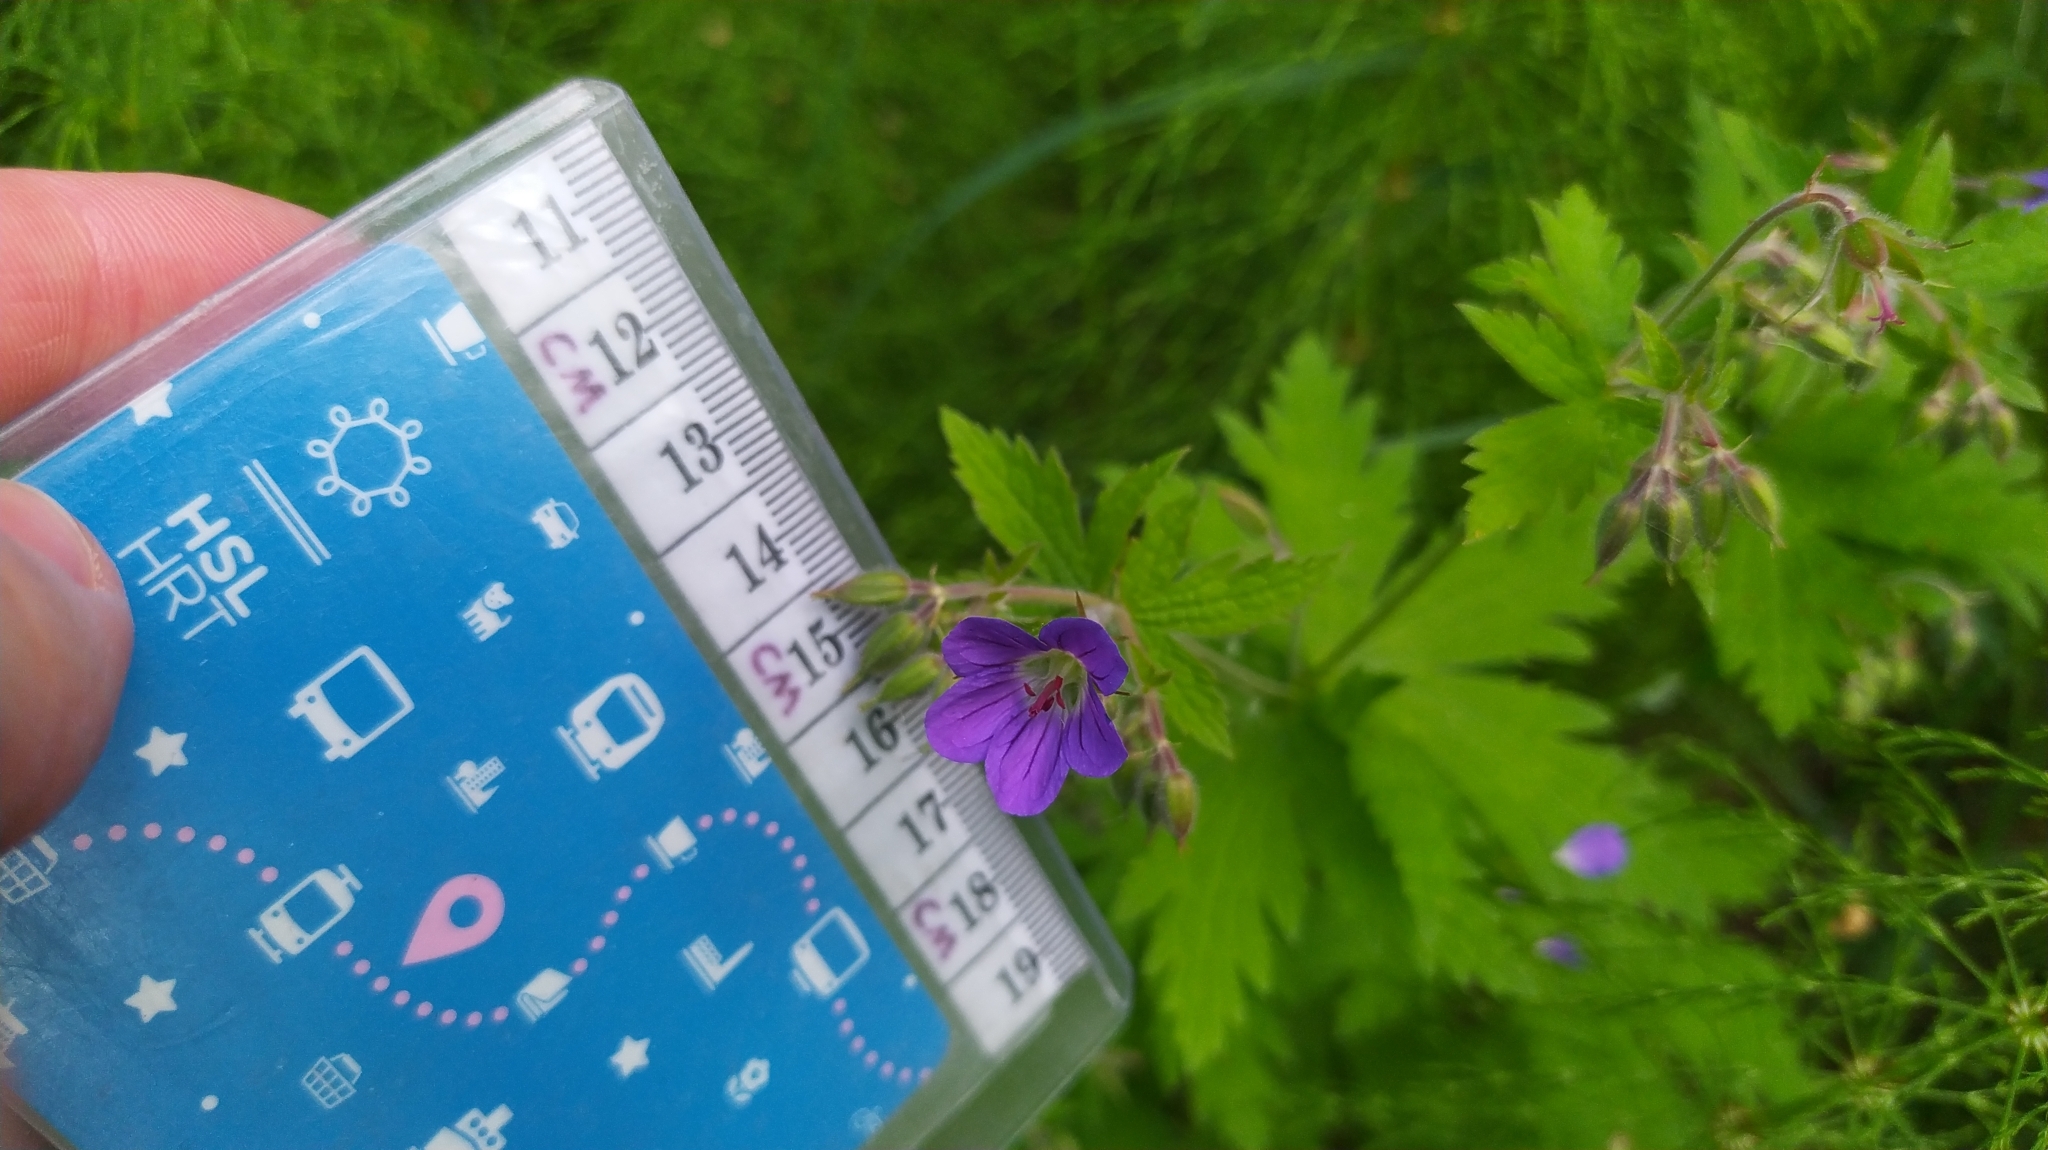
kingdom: Plantae
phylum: Tracheophyta
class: Magnoliopsida
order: Geraniales
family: Geraniaceae
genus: Geranium
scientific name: Geranium sylvaticum
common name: Wood crane's-bill
